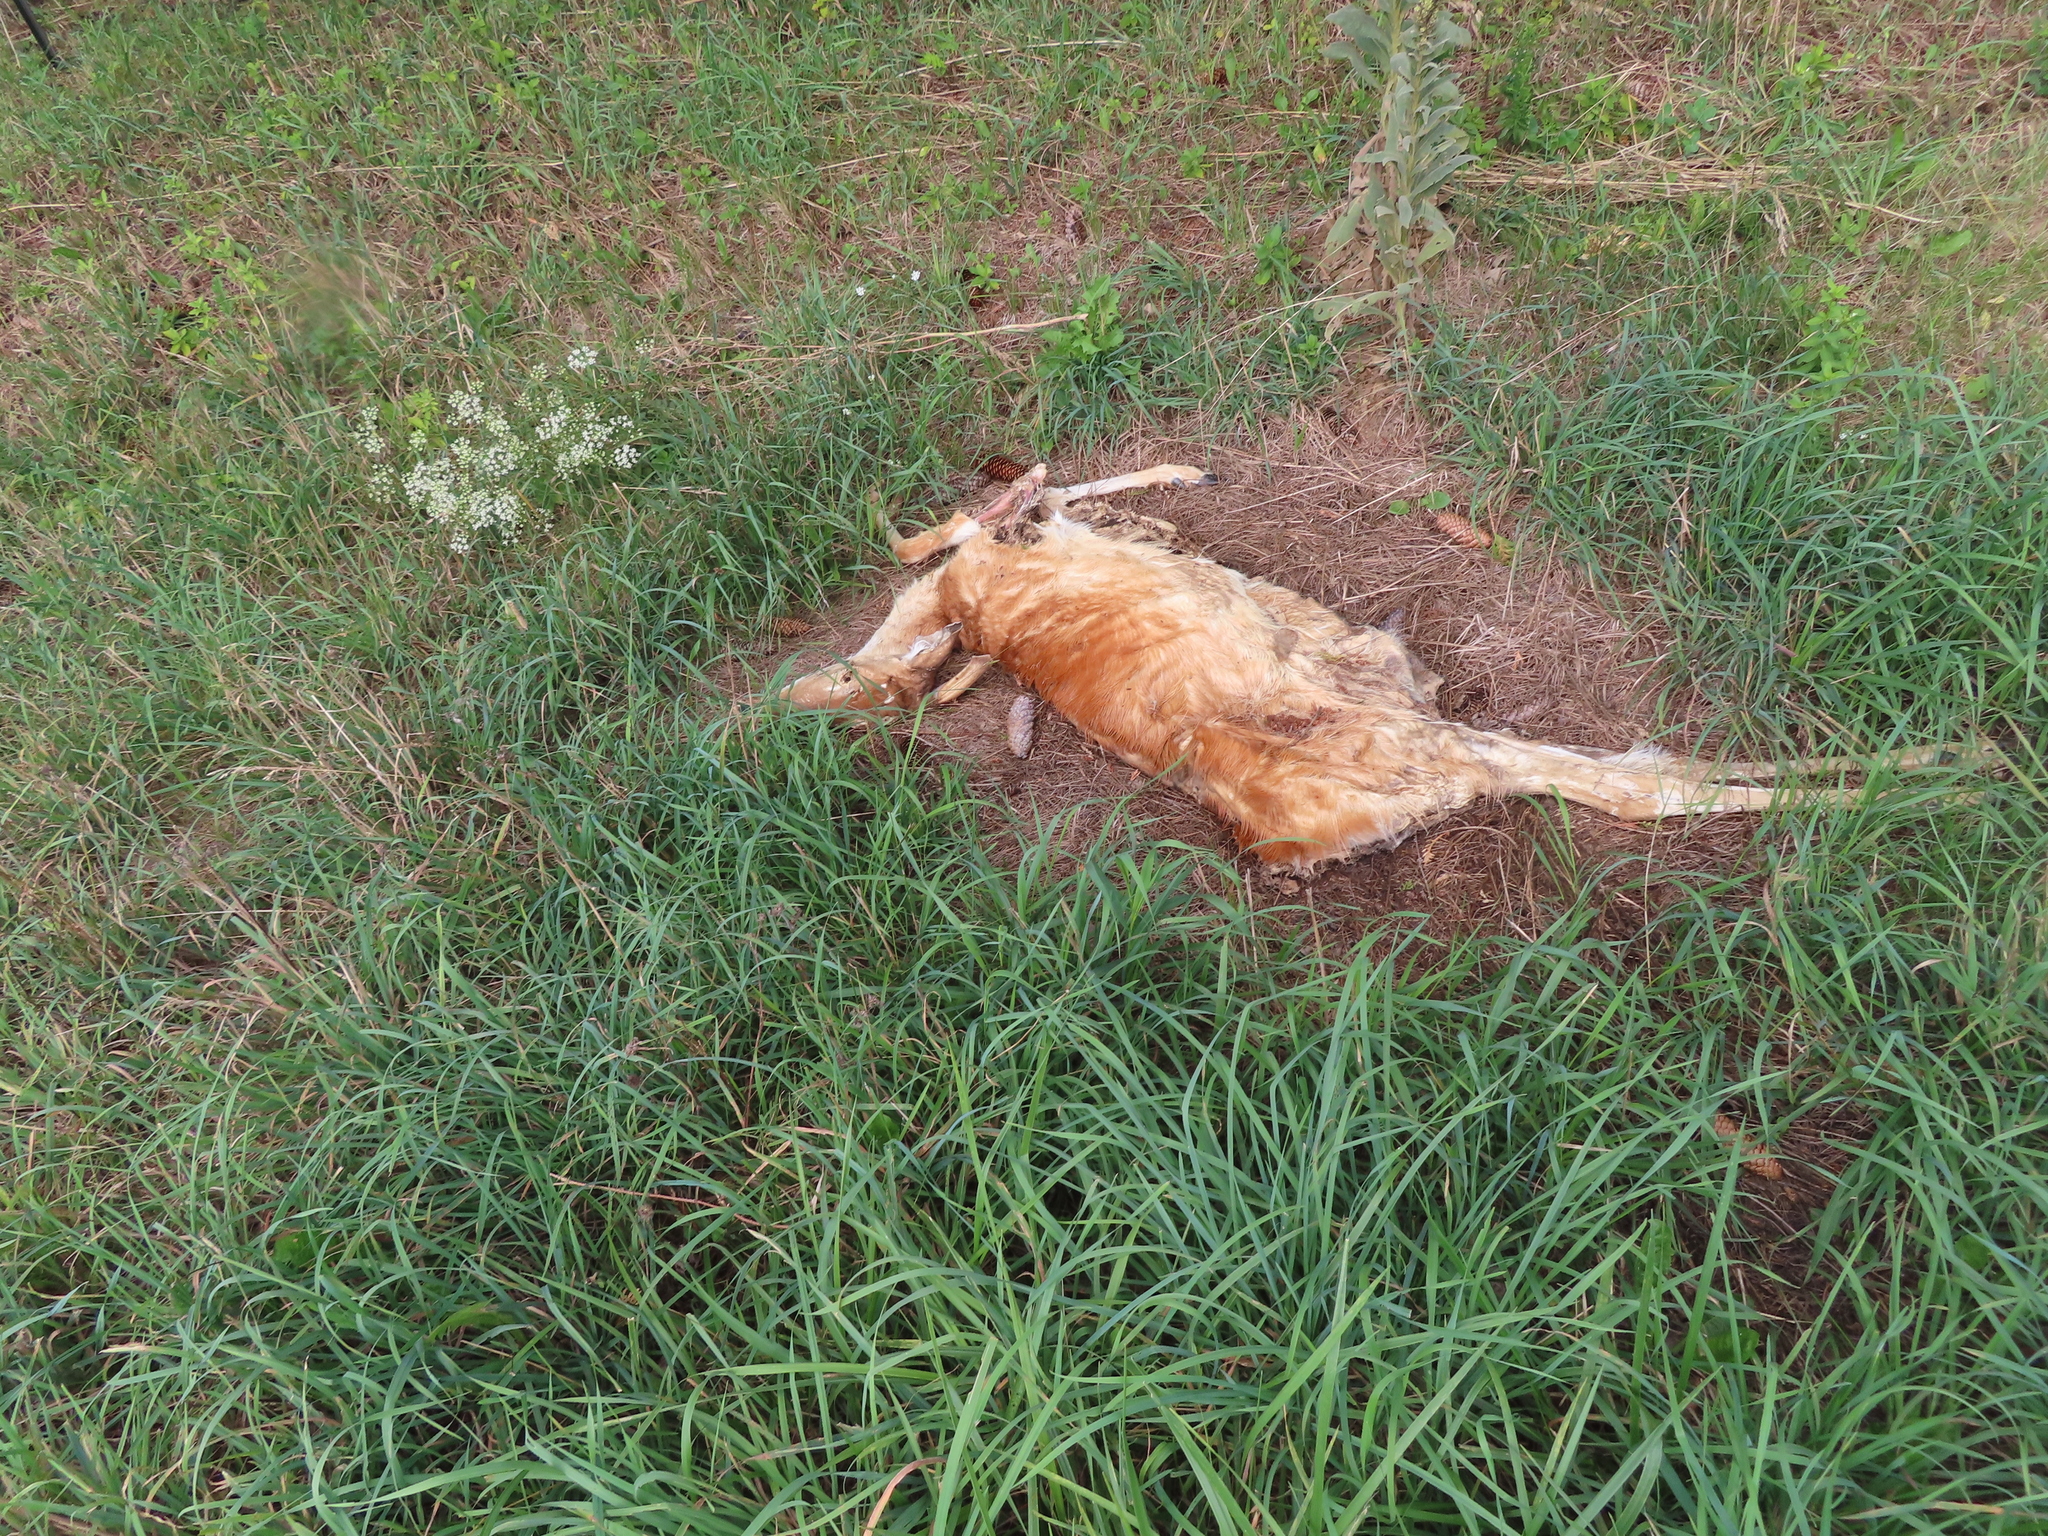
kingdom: Animalia
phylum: Chordata
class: Mammalia
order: Artiodactyla
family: Cervidae
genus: Odocoileus
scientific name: Odocoileus virginianus
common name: White-tailed deer
